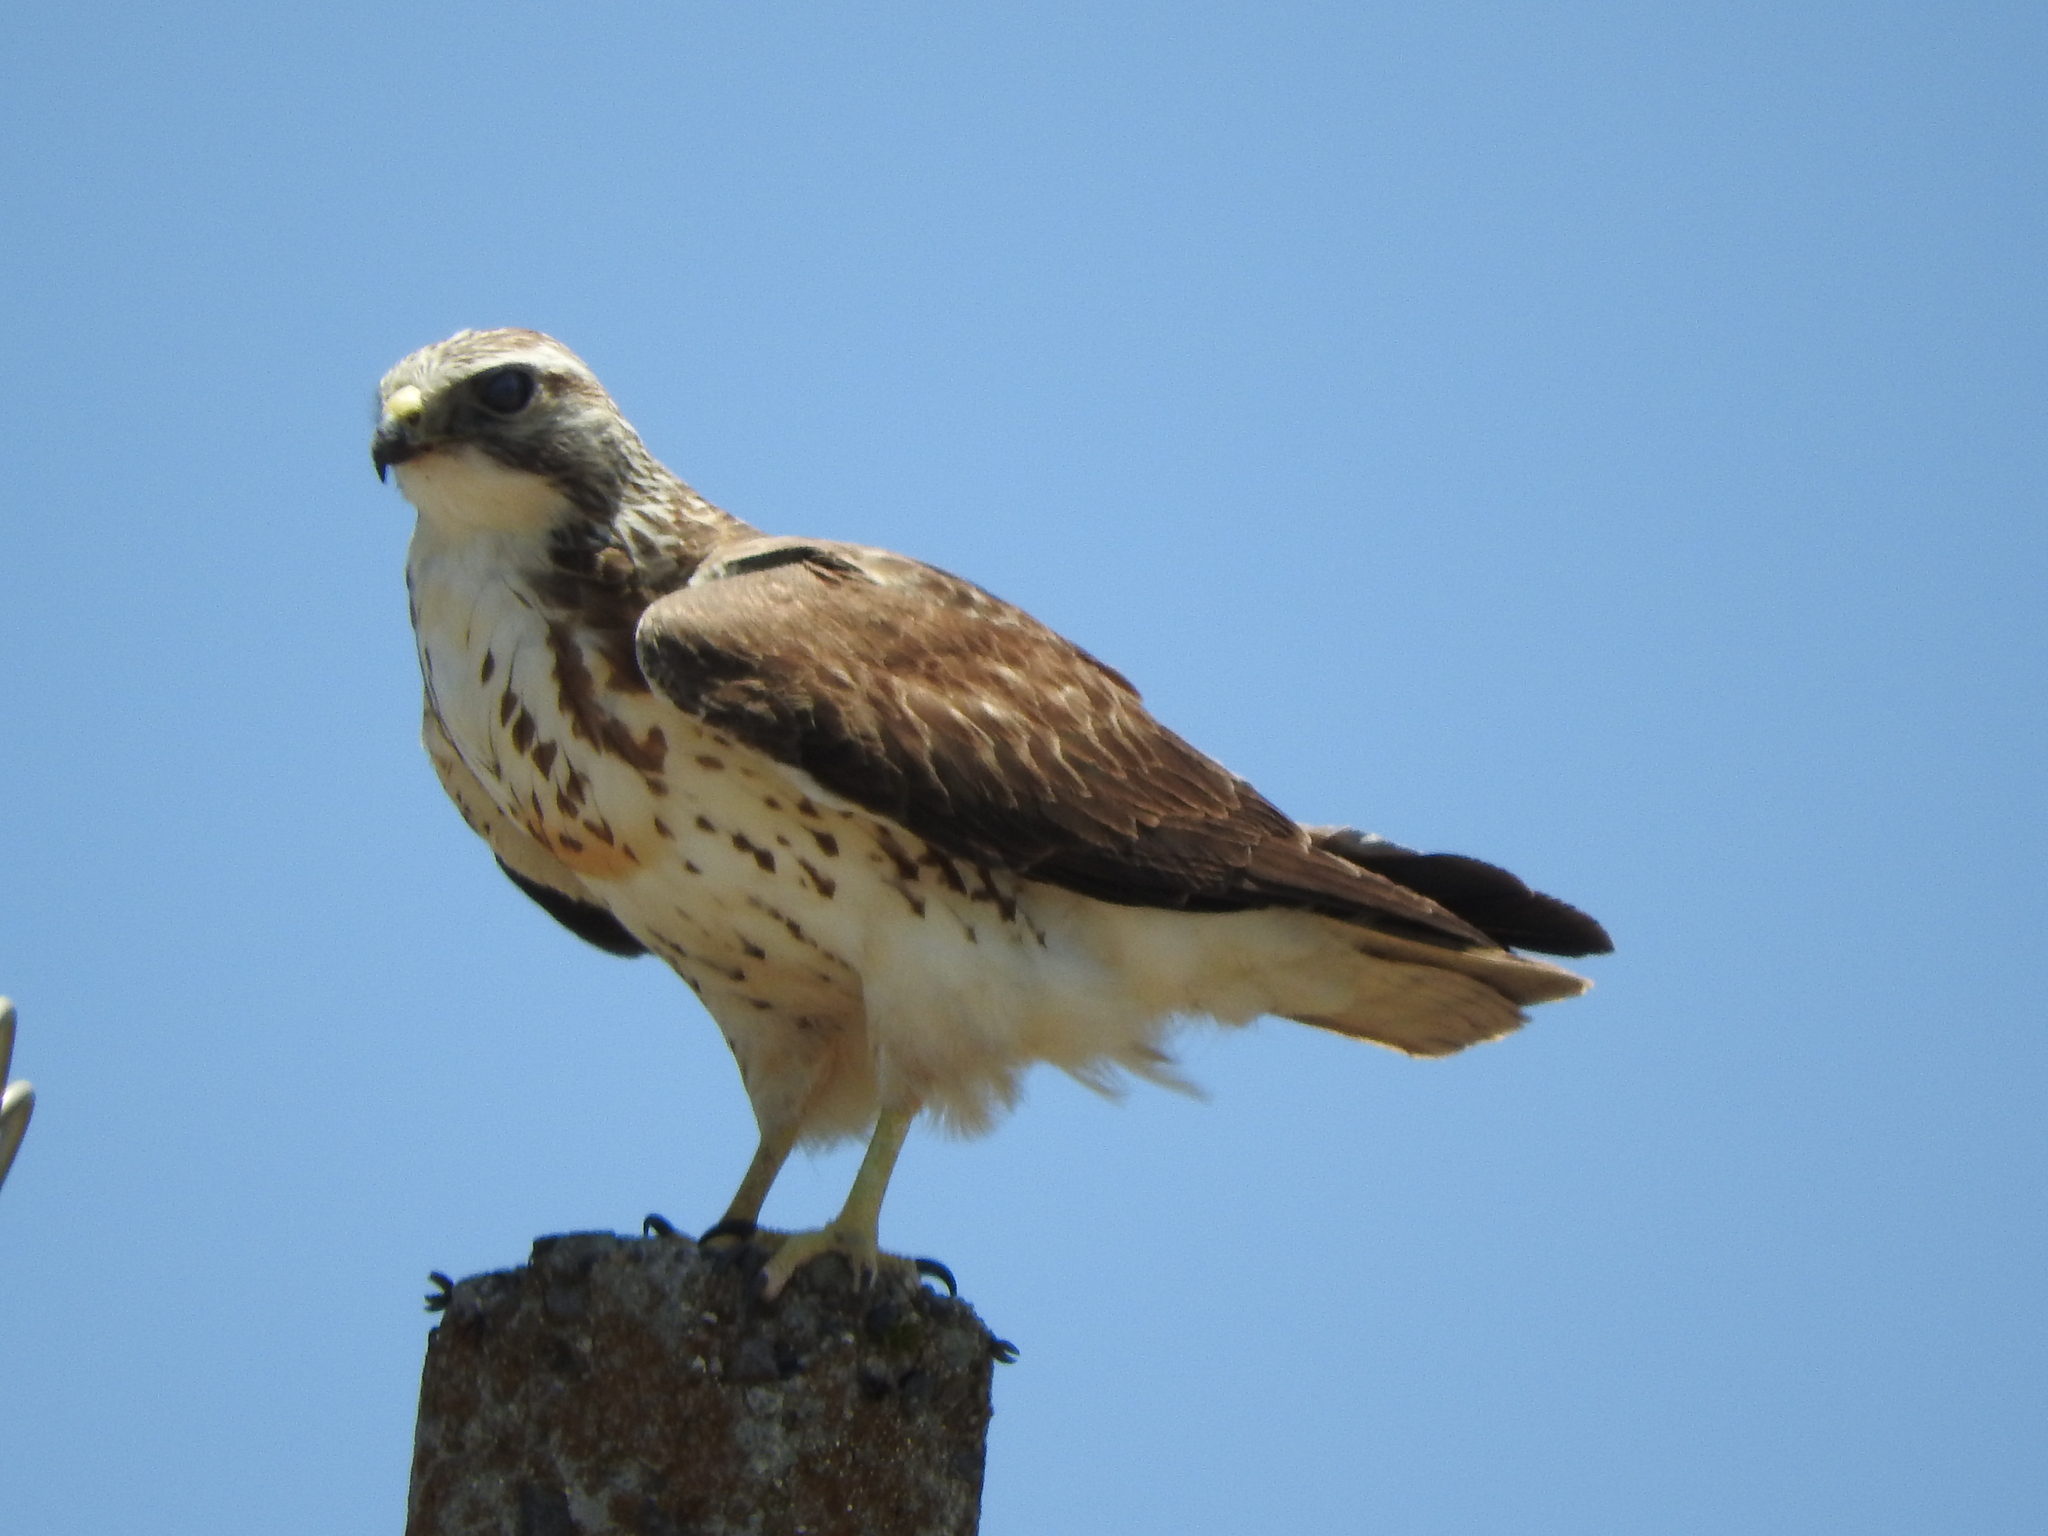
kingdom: Animalia
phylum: Chordata
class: Aves
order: Accipitriformes
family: Accipitridae
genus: Buteo
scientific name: Buteo swainsoni
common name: Swainson's hawk
